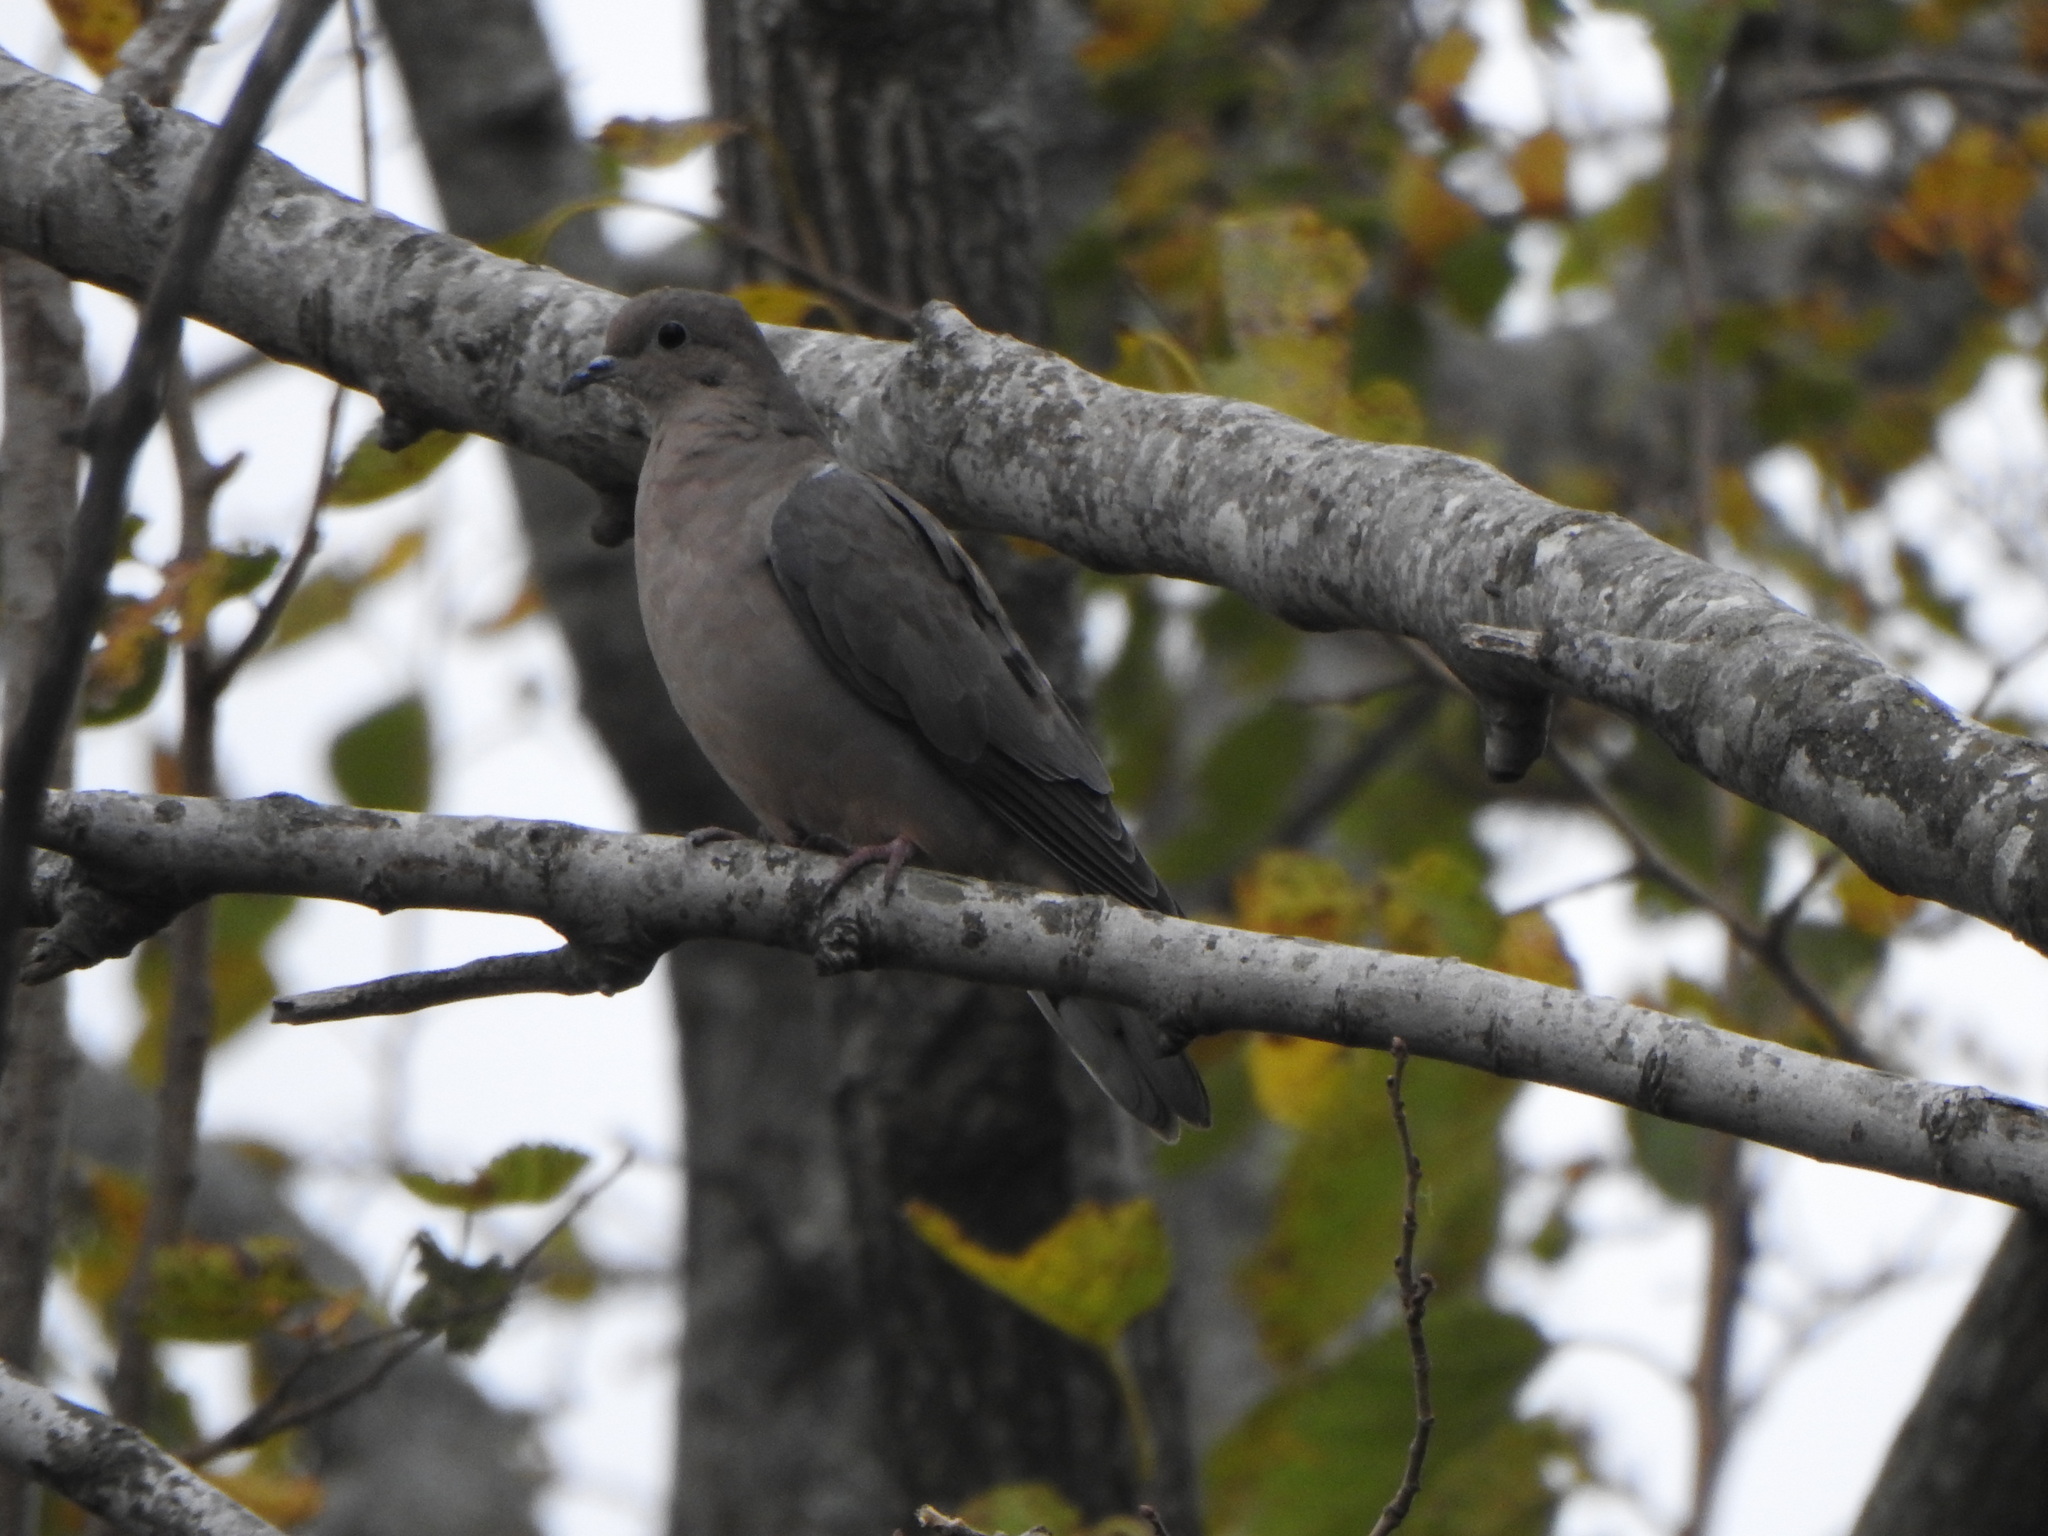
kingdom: Animalia
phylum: Chordata
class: Aves
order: Columbiformes
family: Columbidae
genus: Zenaida
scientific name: Zenaida auriculata
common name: Eared dove
